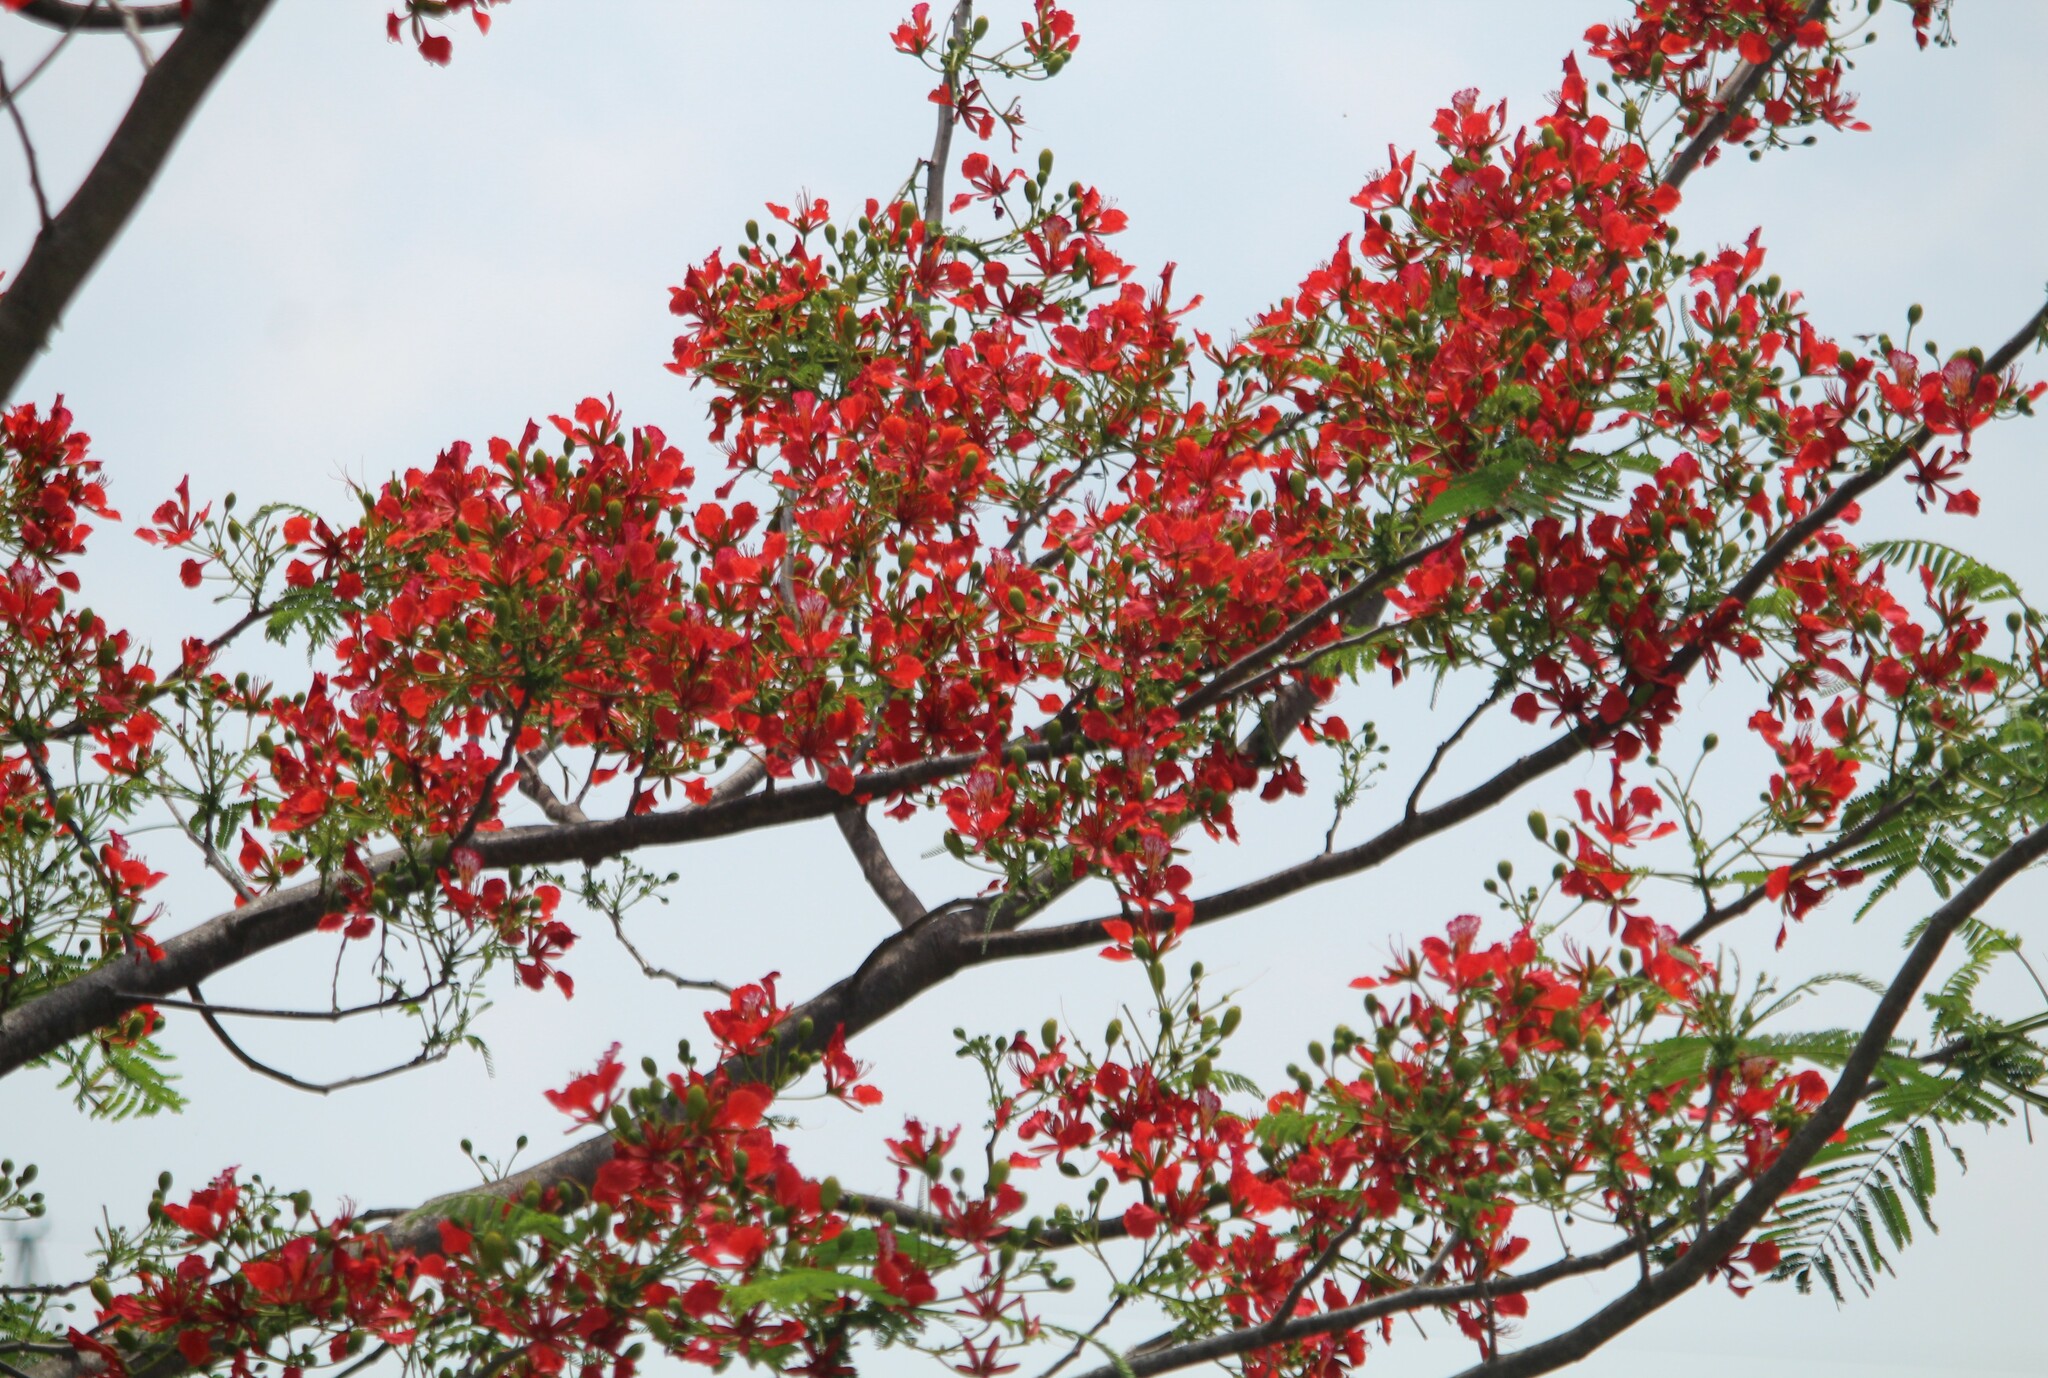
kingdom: Plantae
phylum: Tracheophyta
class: Magnoliopsida
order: Fabales
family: Fabaceae
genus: Delonix
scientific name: Delonix regia
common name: Royal poinciana
